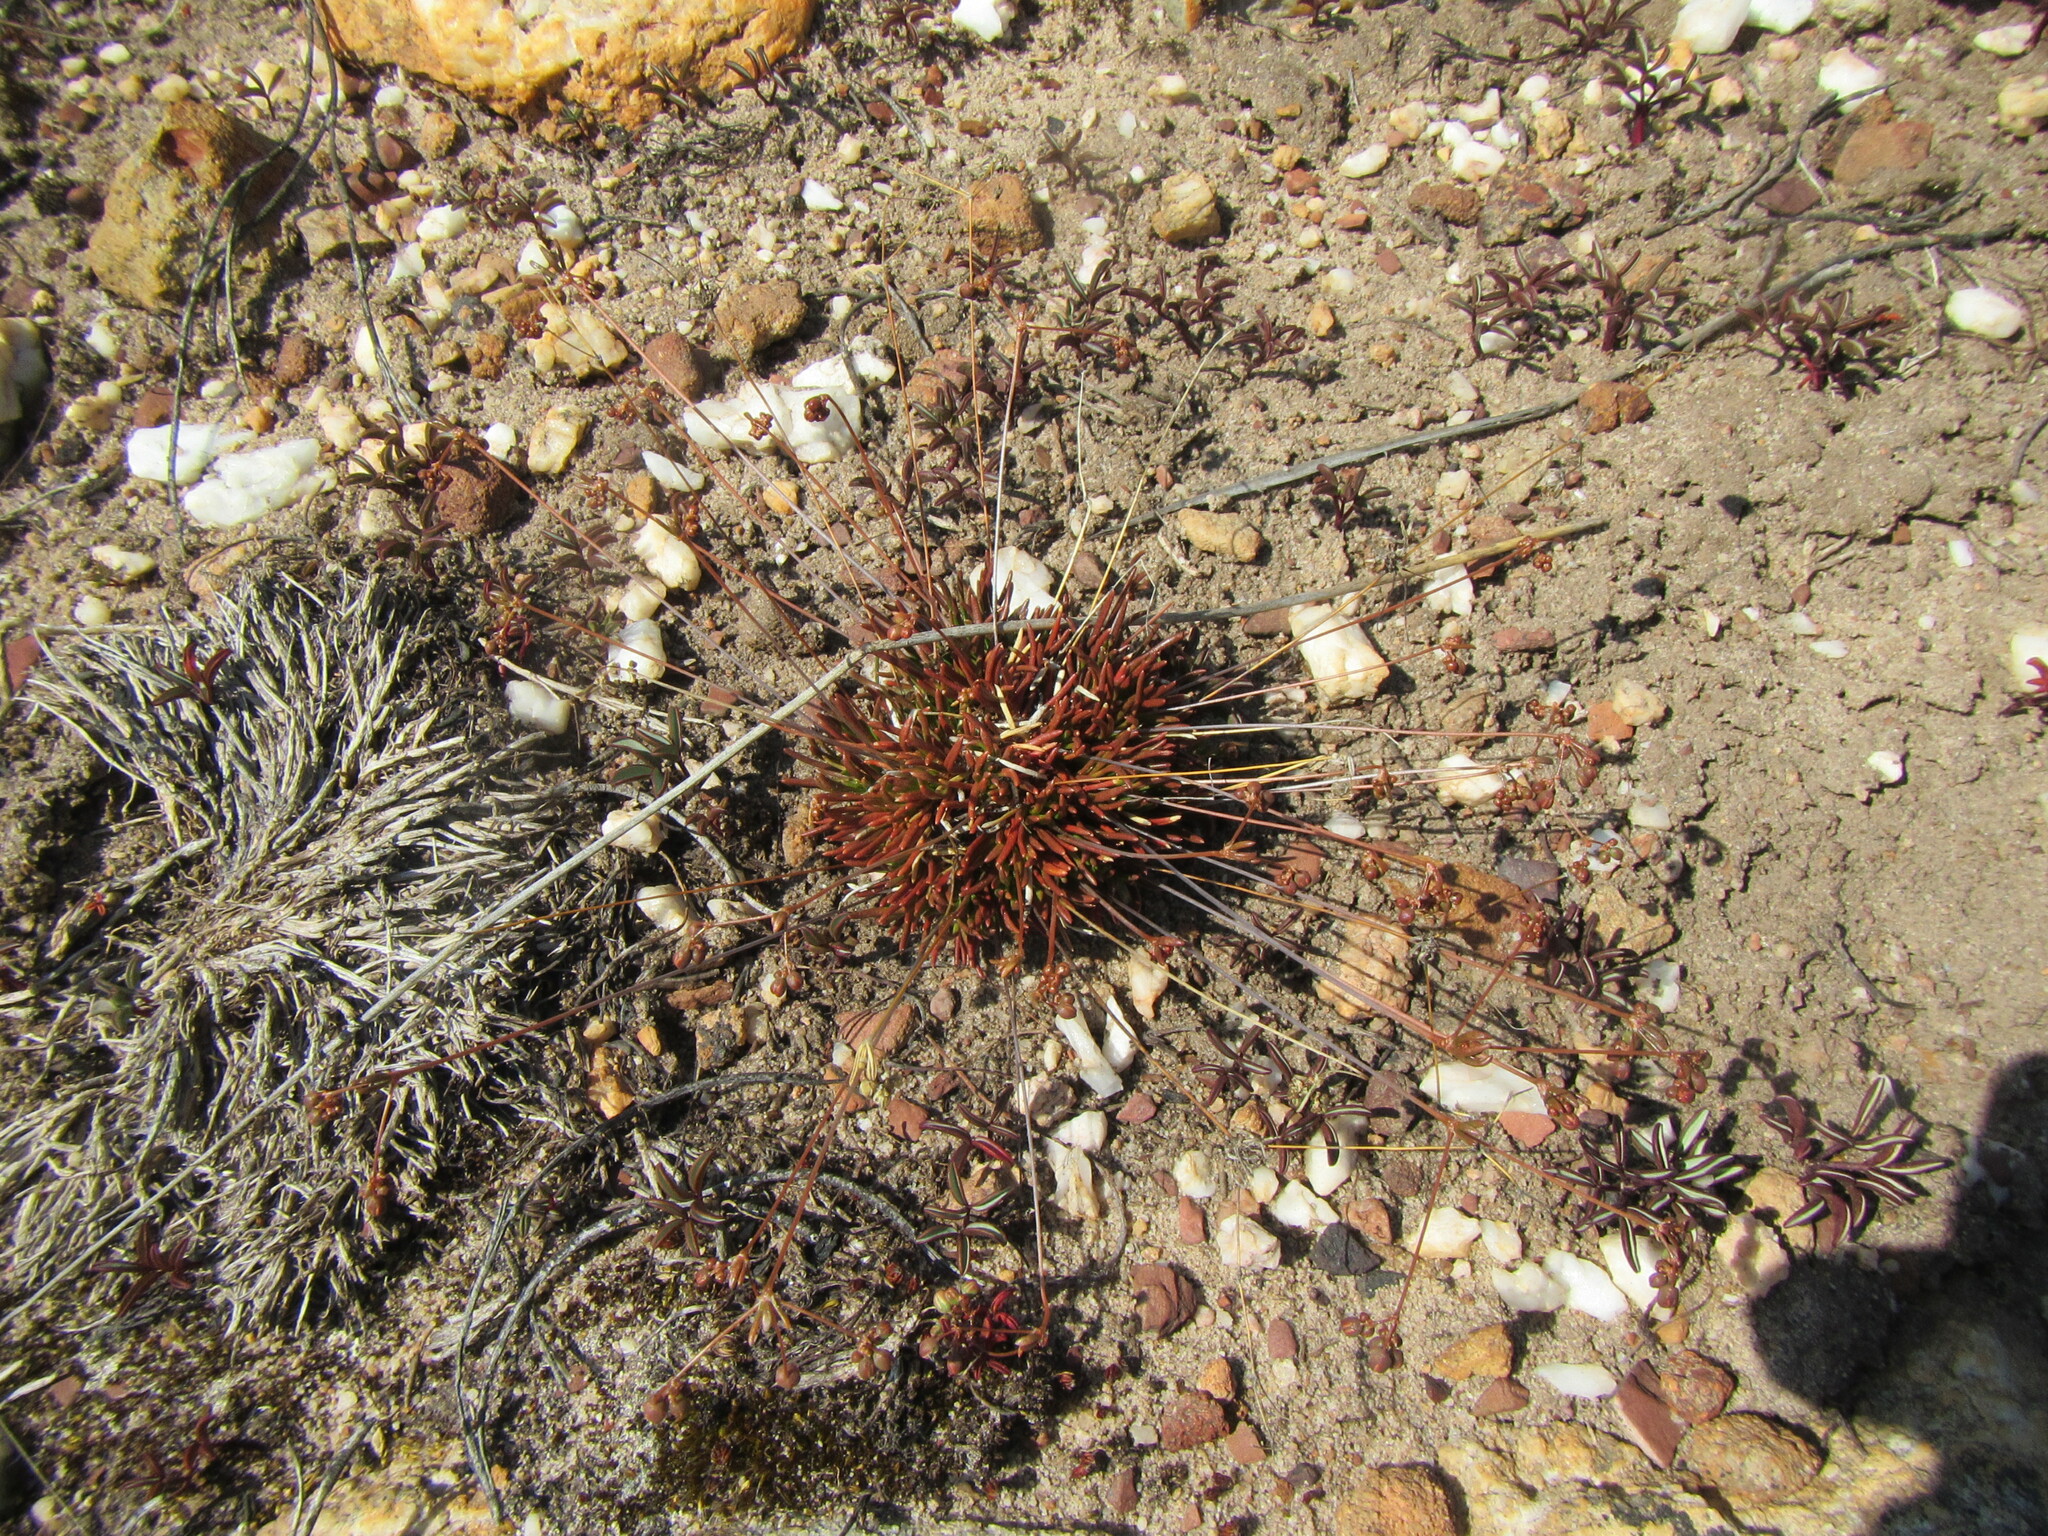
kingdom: Plantae
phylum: Tracheophyta
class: Magnoliopsida
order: Caryophyllales
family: Molluginaceae
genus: Pharnaceum
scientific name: Pharnaceum dichotomum
